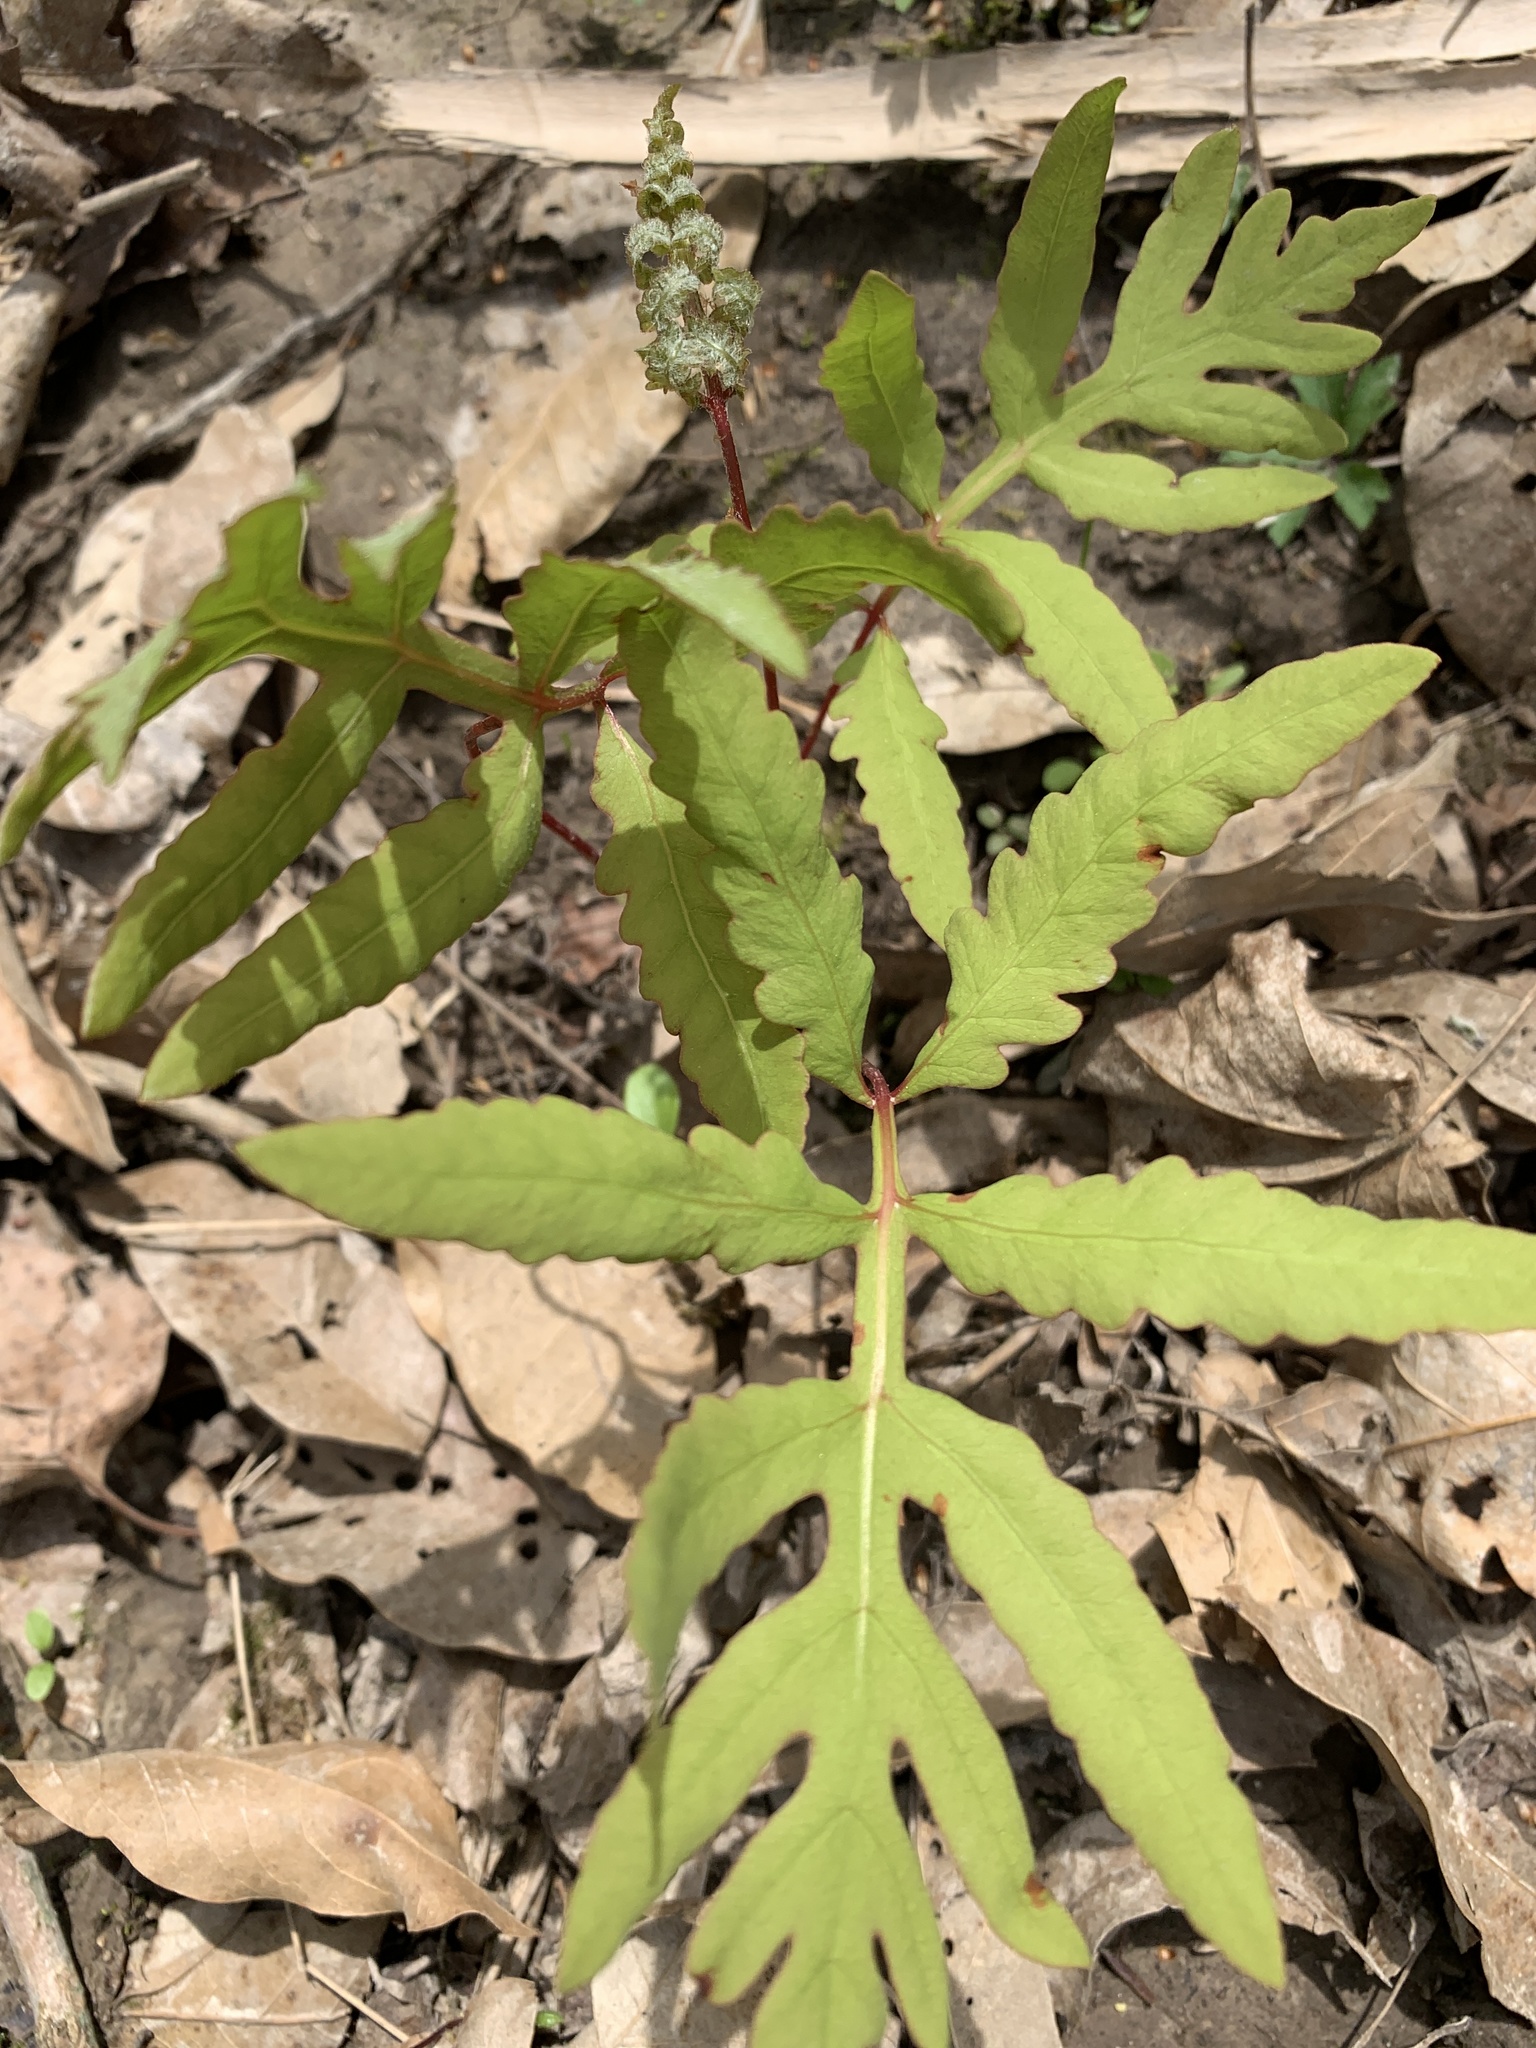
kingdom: Plantae
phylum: Tracheophyta
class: Polypodiopsida
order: Polypodiales
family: Onocleaceae
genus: Onoclea
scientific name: Onoclea sensibilis
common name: Sensitive fern
